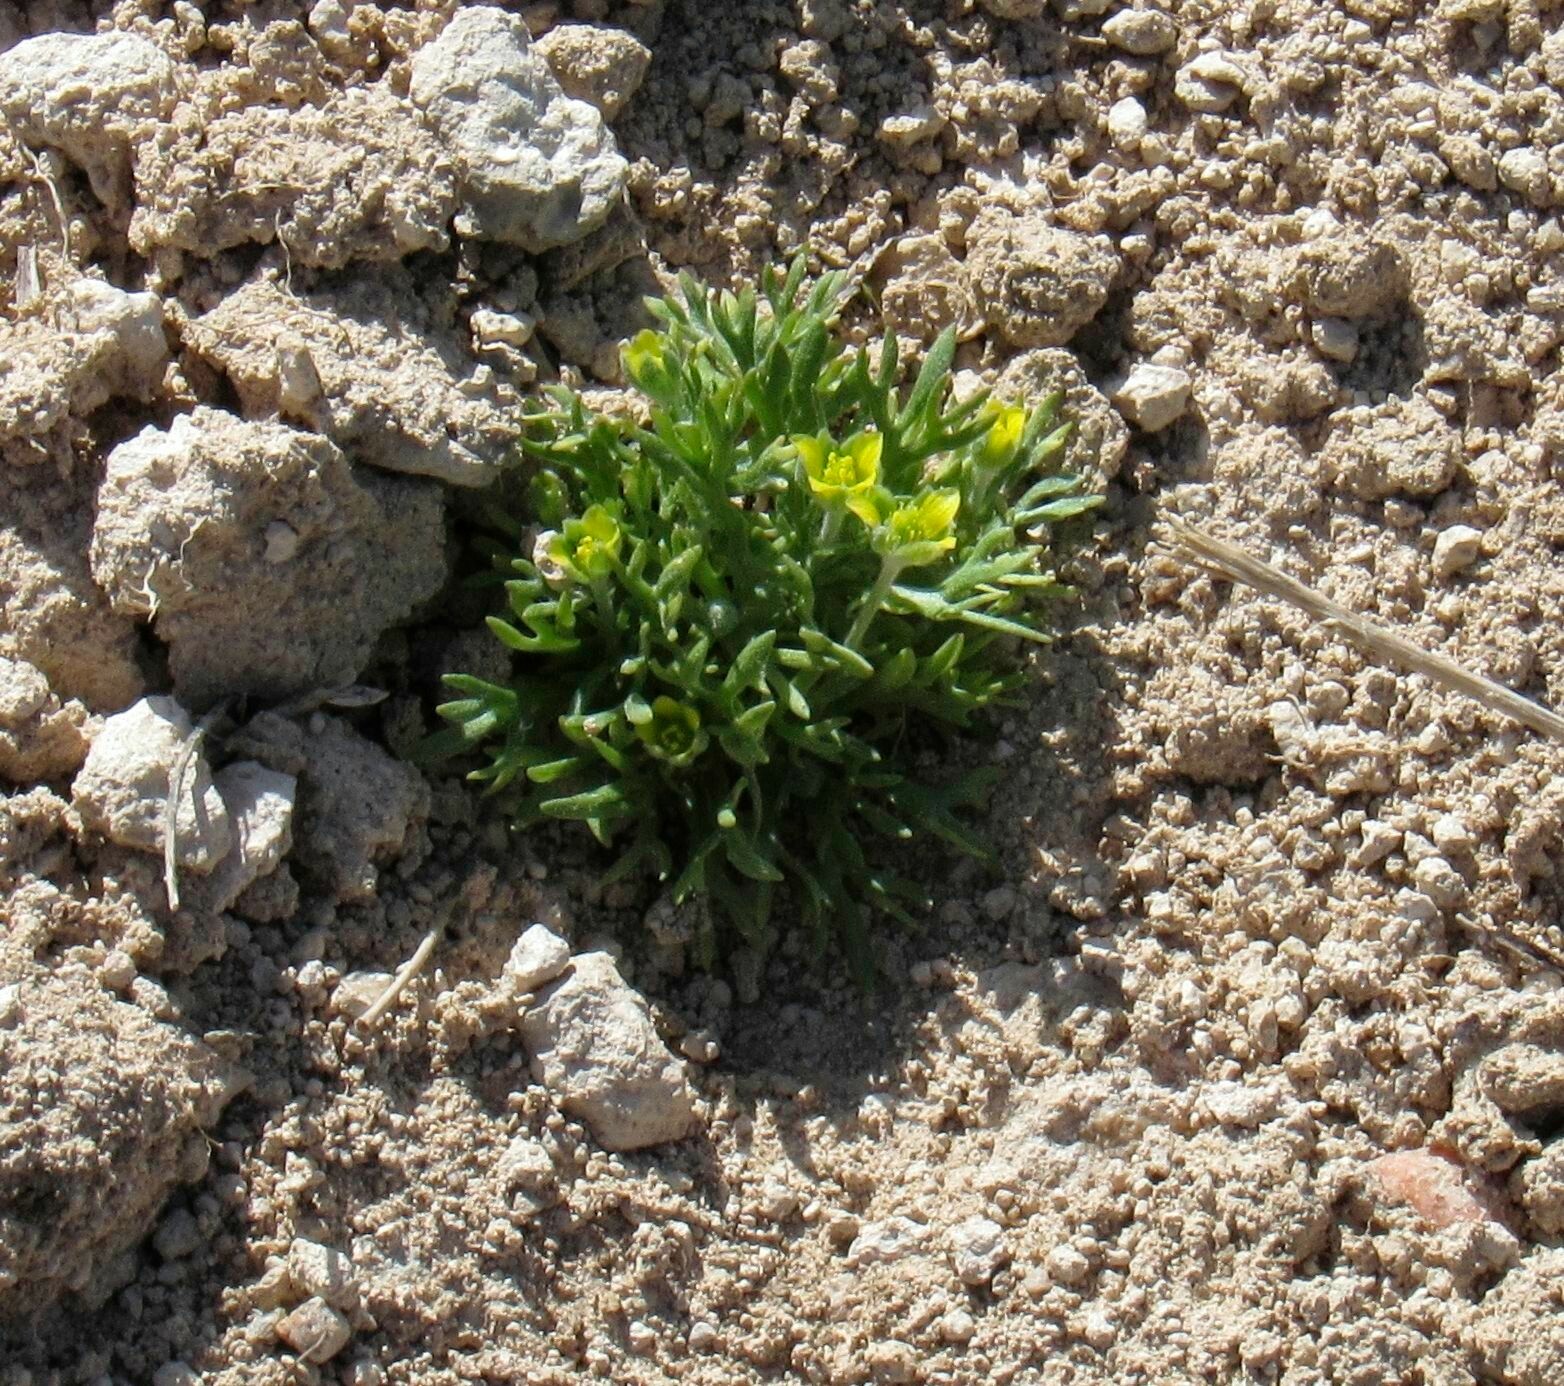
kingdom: Plantae
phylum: Tracheophyta
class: Magnoliopsida
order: Ranunculales
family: Ranunculaceae
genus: Ceratocephala
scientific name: Ceratocephala orthoceras
